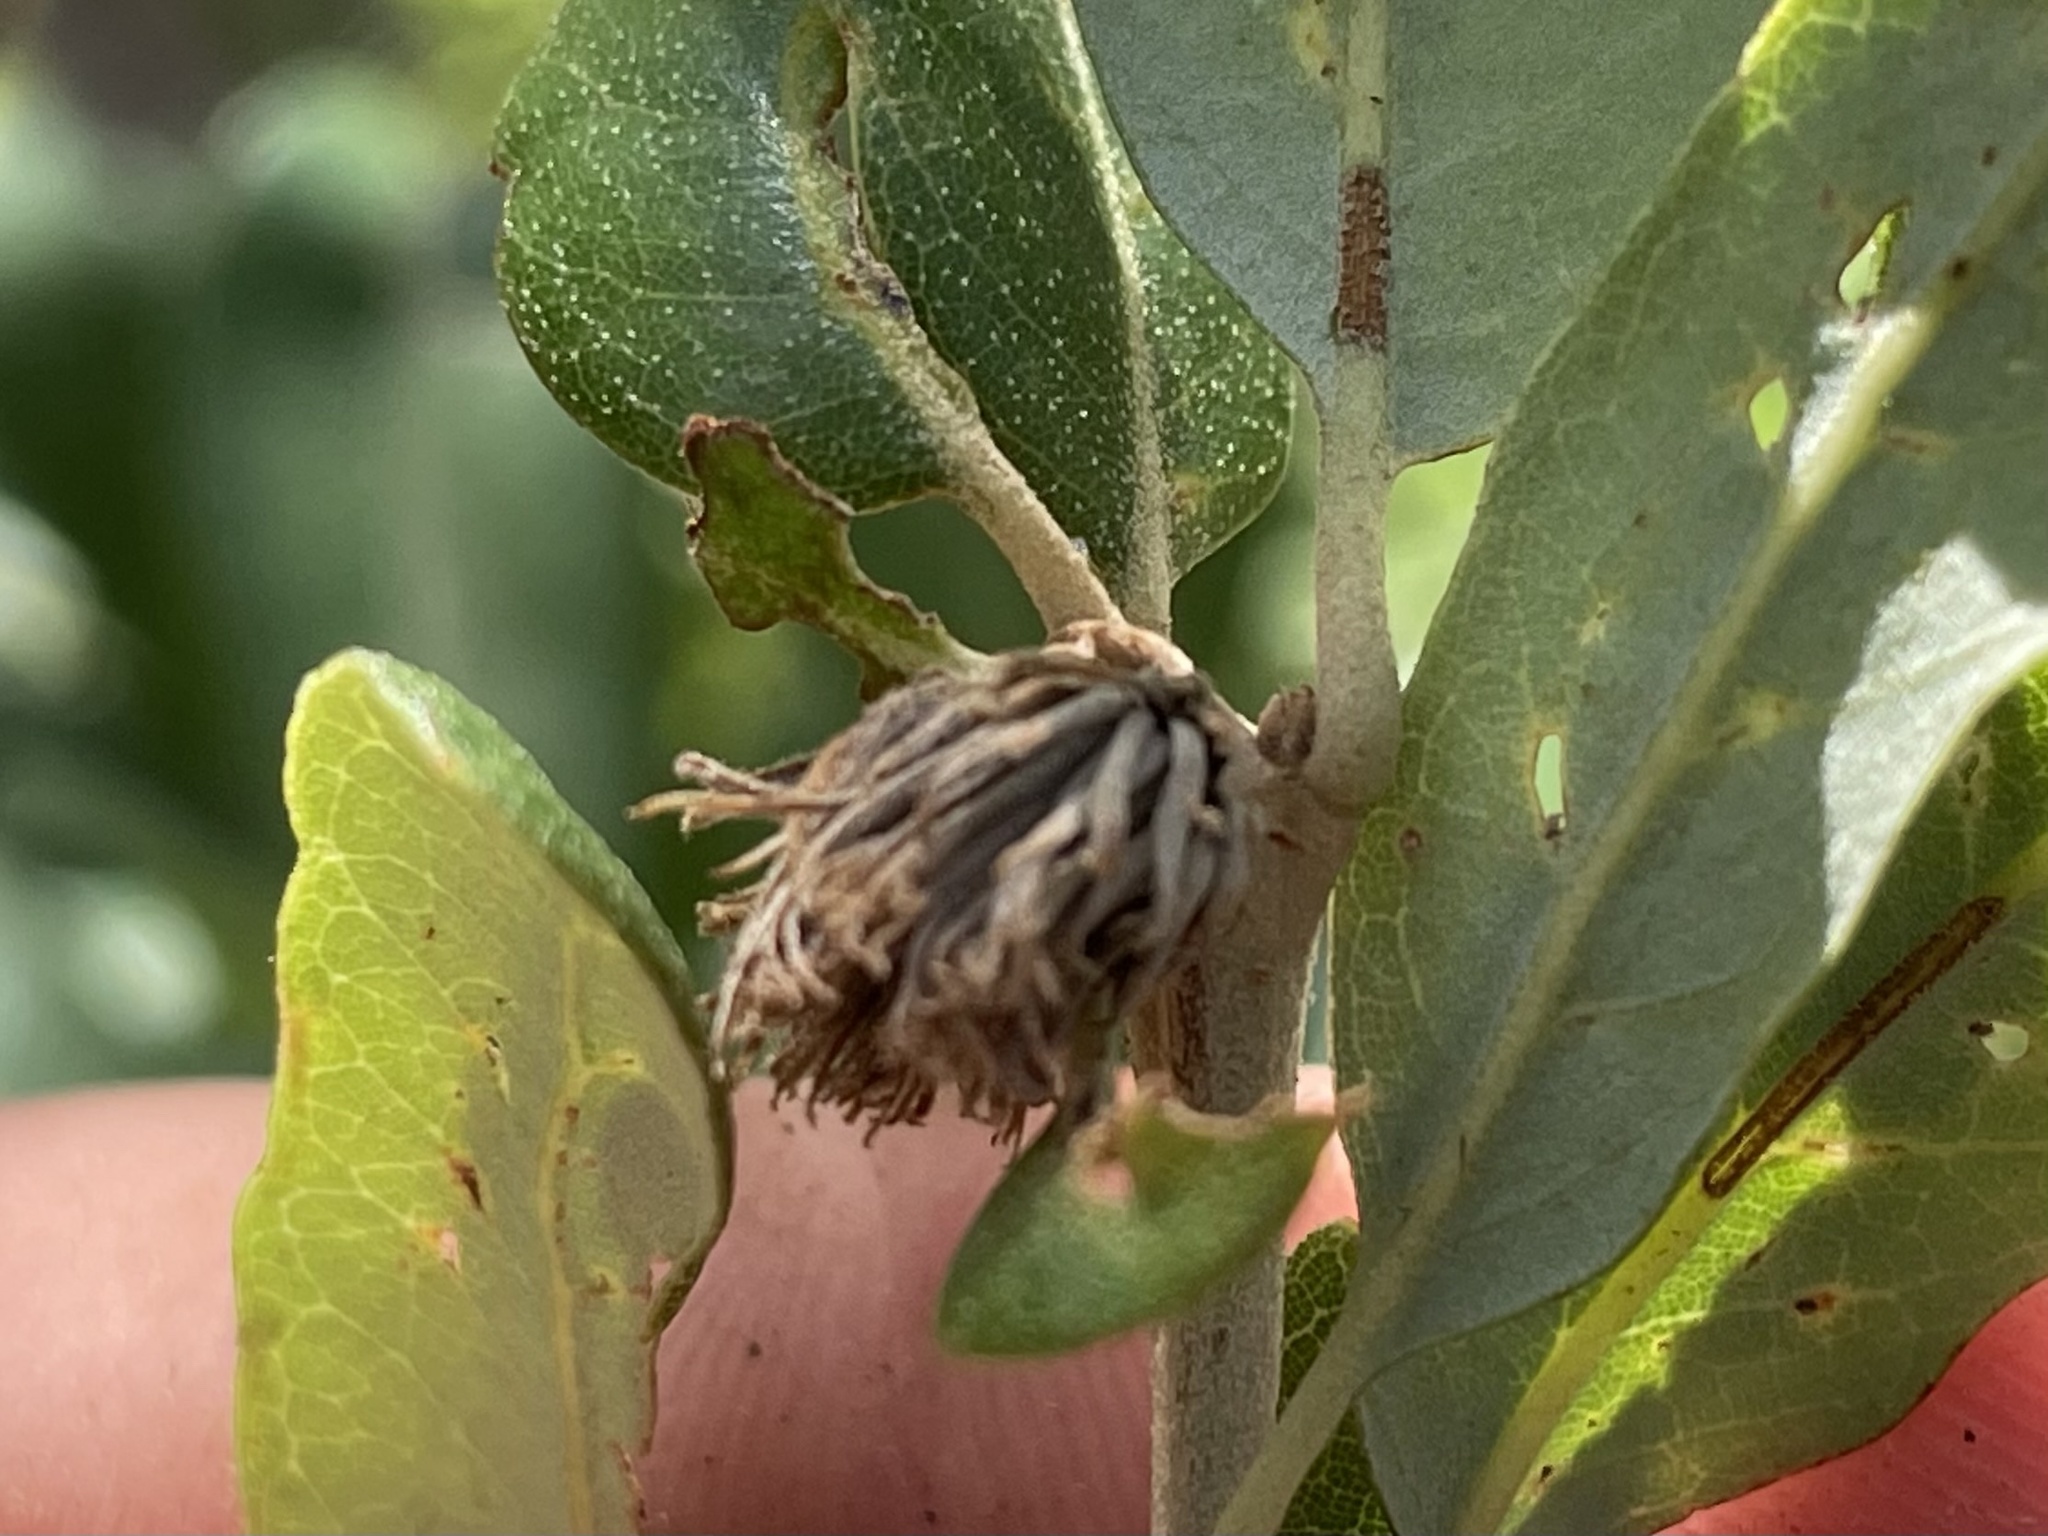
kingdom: Animalia
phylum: Arthropoda
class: Insecta
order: Hymenoptera
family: Cynipidae
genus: Andricus
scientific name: Andricus quercusfoliatus
